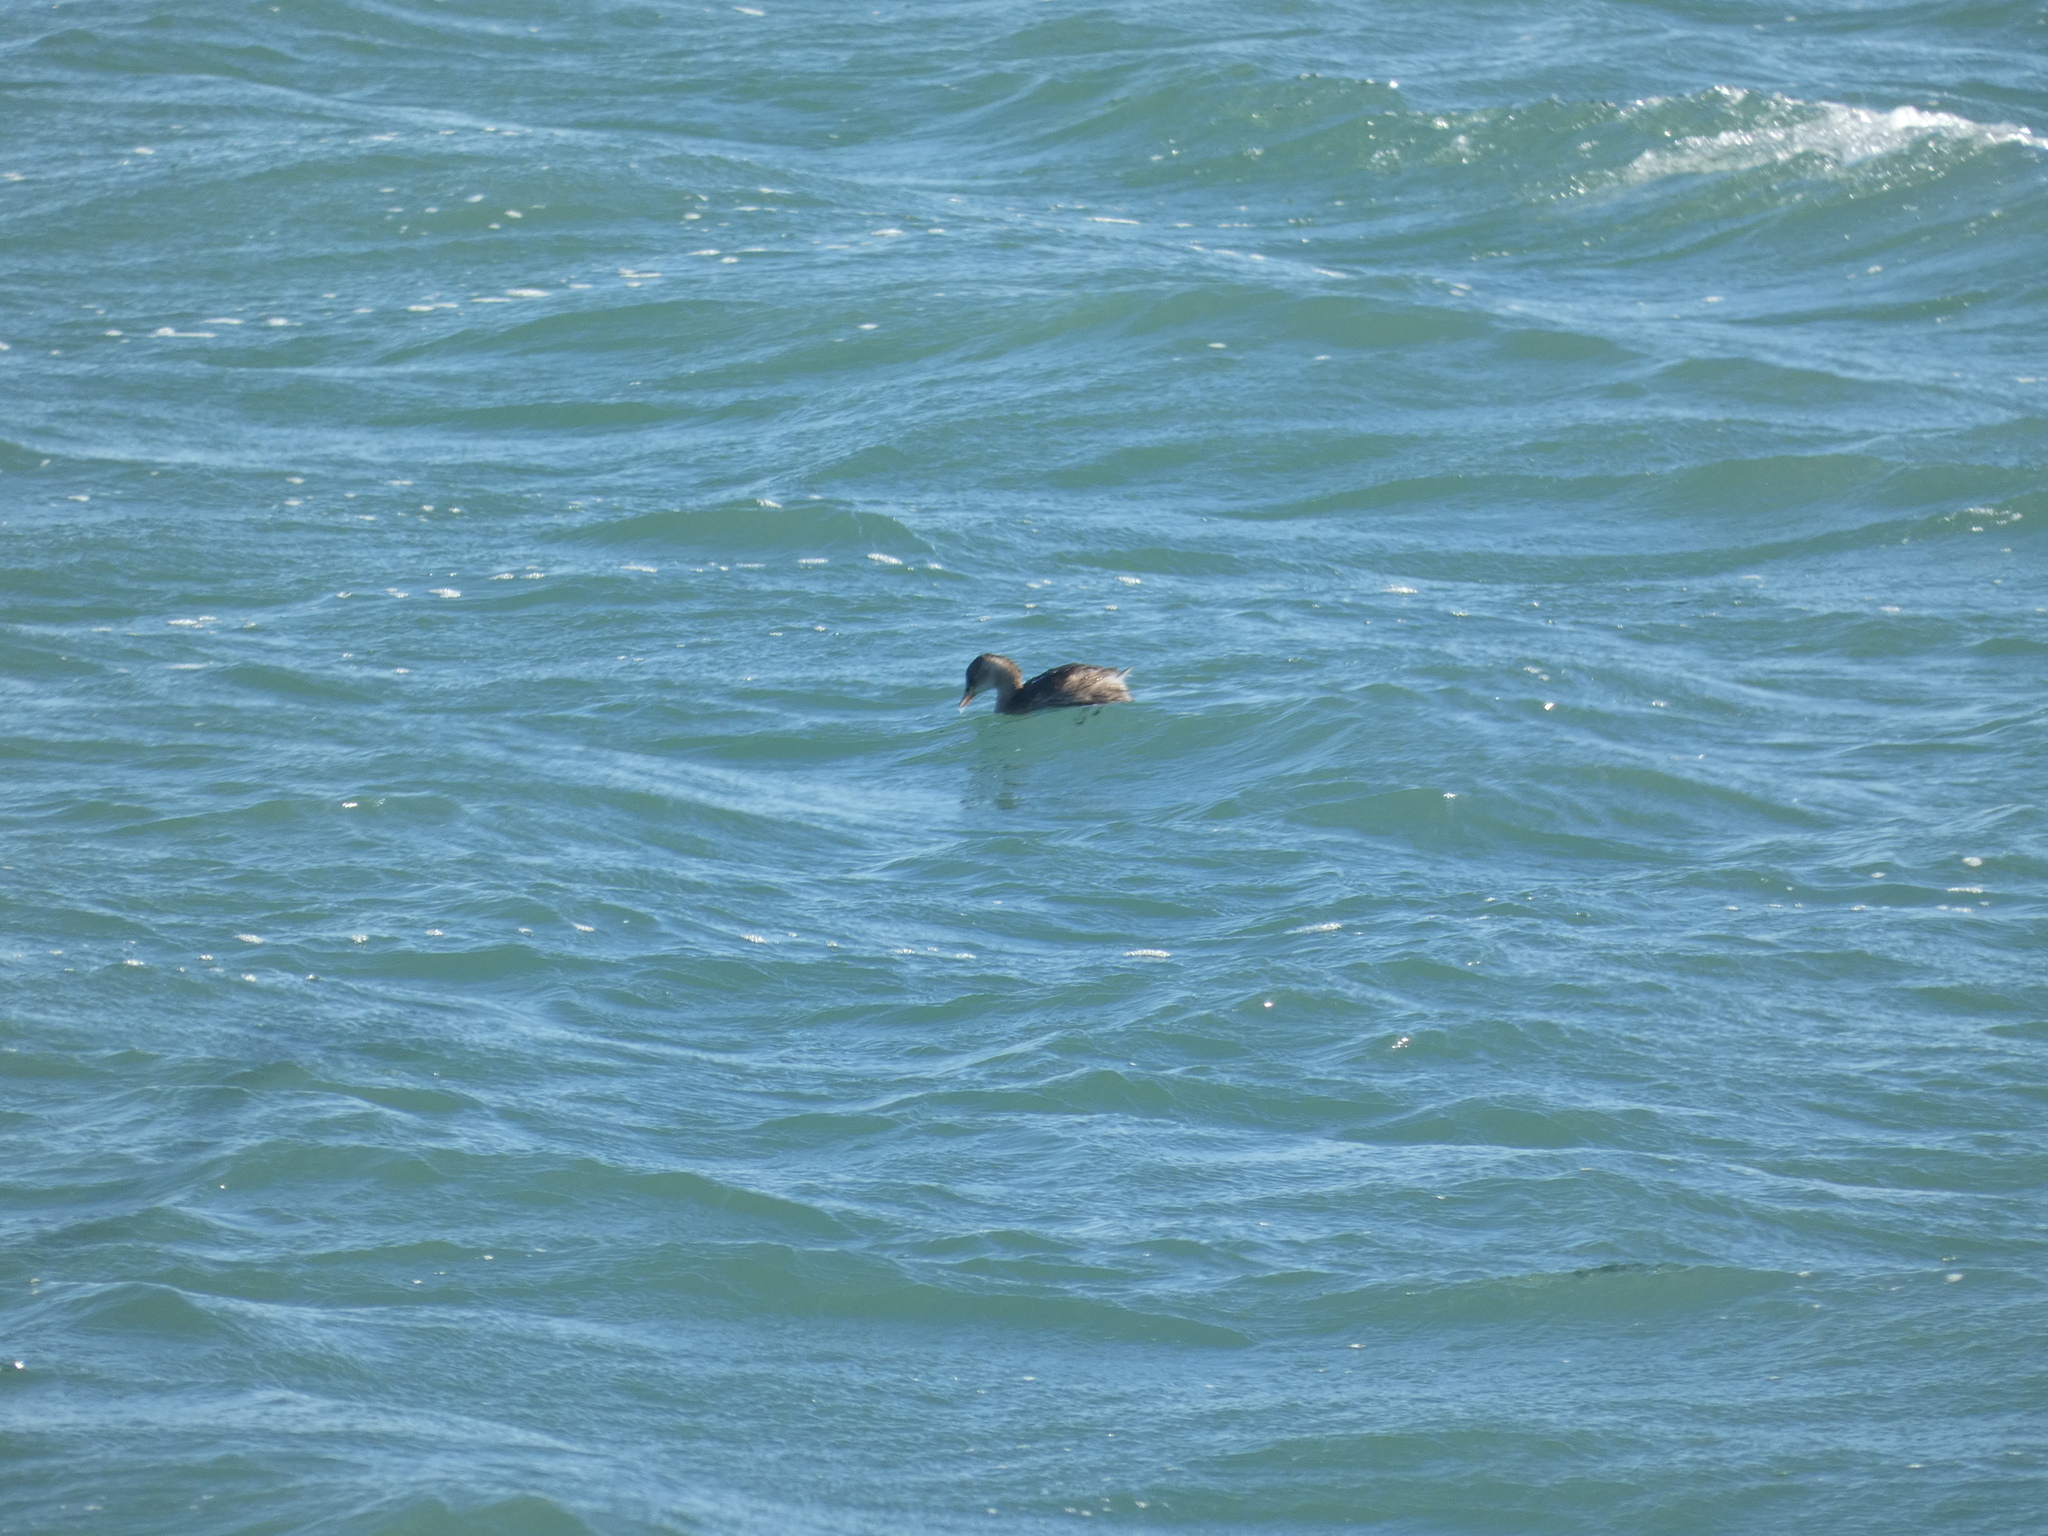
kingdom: Animalia
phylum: Chordata
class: Aves
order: Podicipediformes
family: Podicipedidae
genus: Tachybaptus
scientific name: Tachybaptus ruficollis
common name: Little grebe
